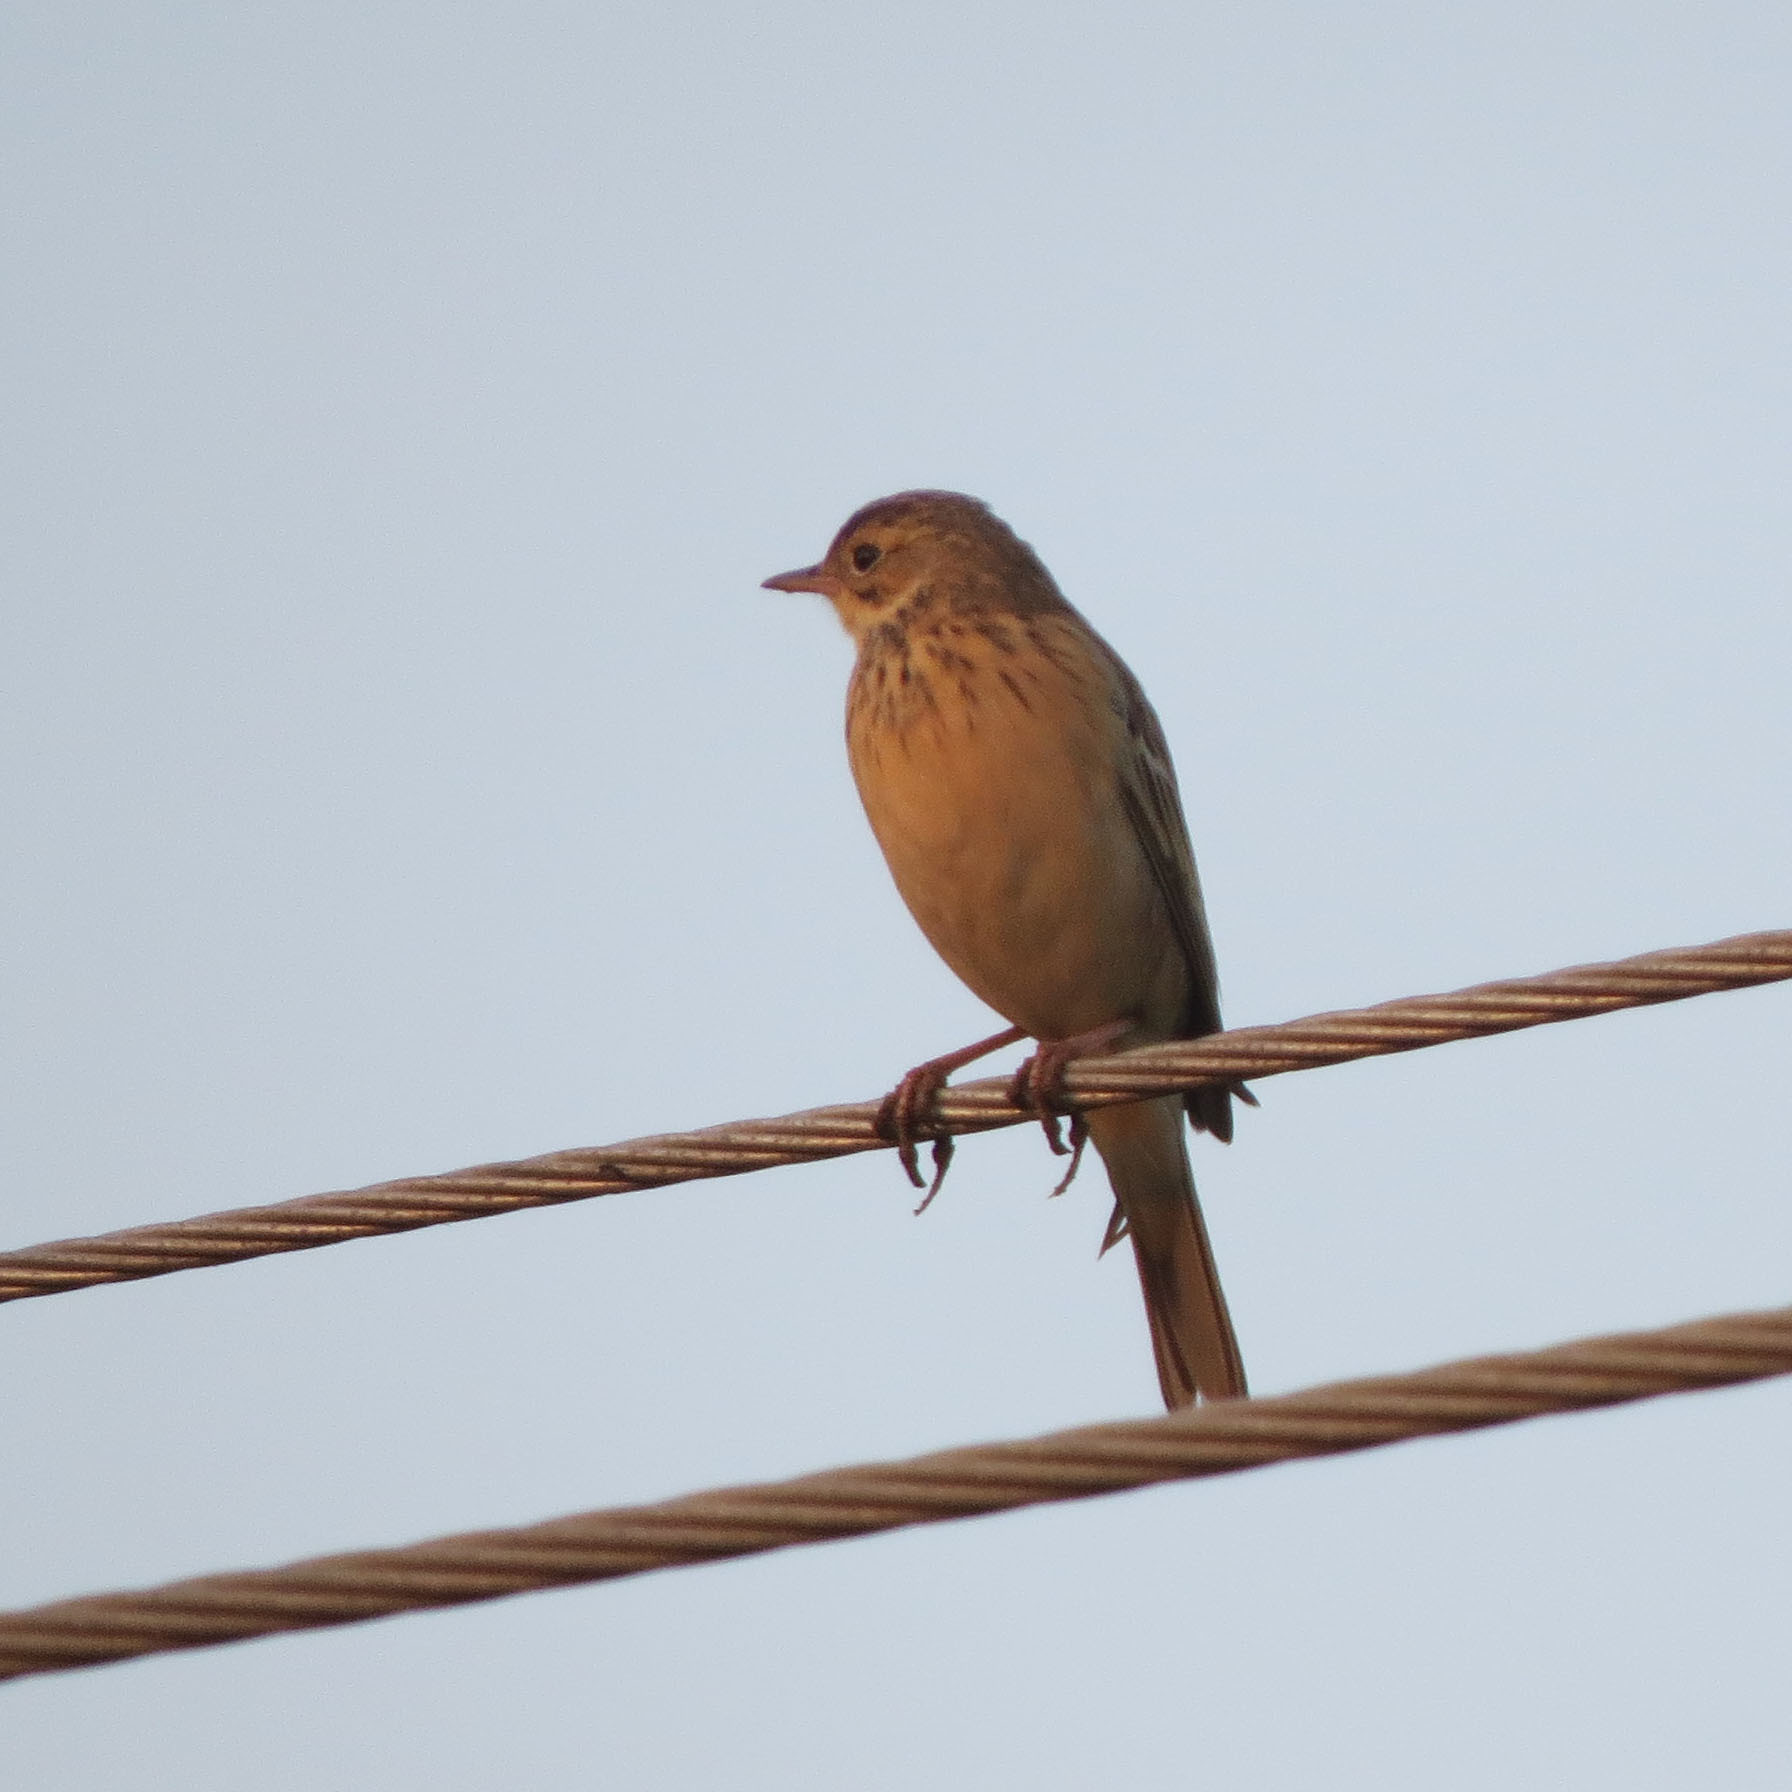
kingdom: Animalia
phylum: Chordata
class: Aves
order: Passeriformes
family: Motacillidae
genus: Anthus
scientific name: Anthus rufulus
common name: Paddyfield pipit
